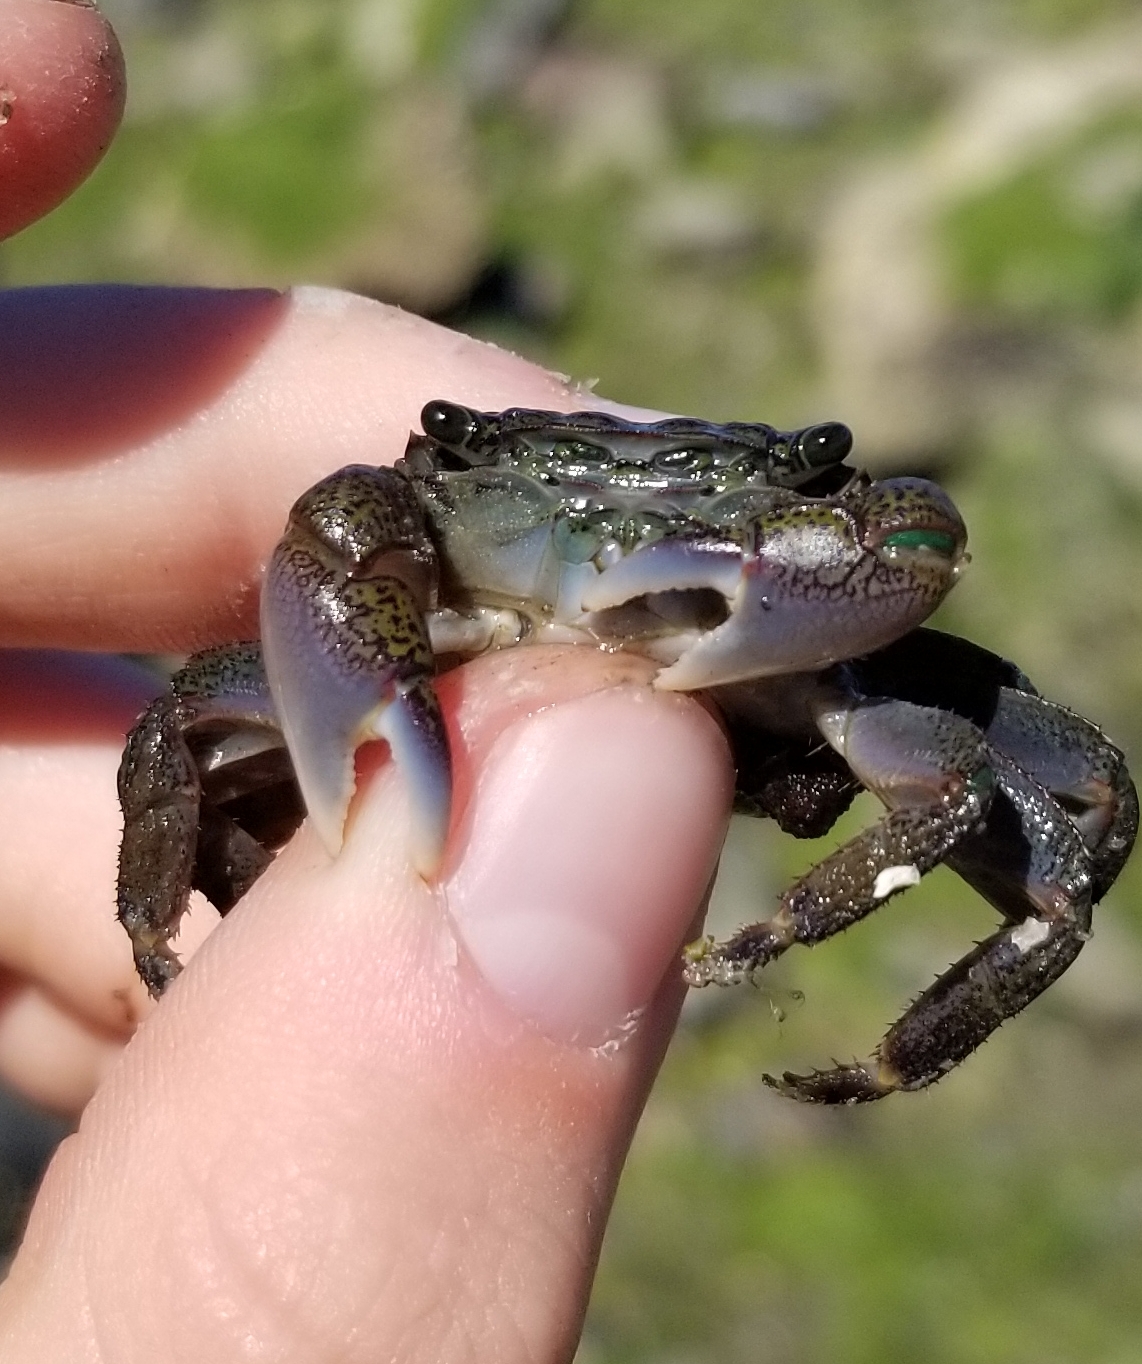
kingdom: Animalia
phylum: Arthropoda
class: Malacostraca
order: Decapoda
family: Grapsidae
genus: Pachygrapsus
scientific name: Pachygrapsus crassipes
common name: Striped shore crab
